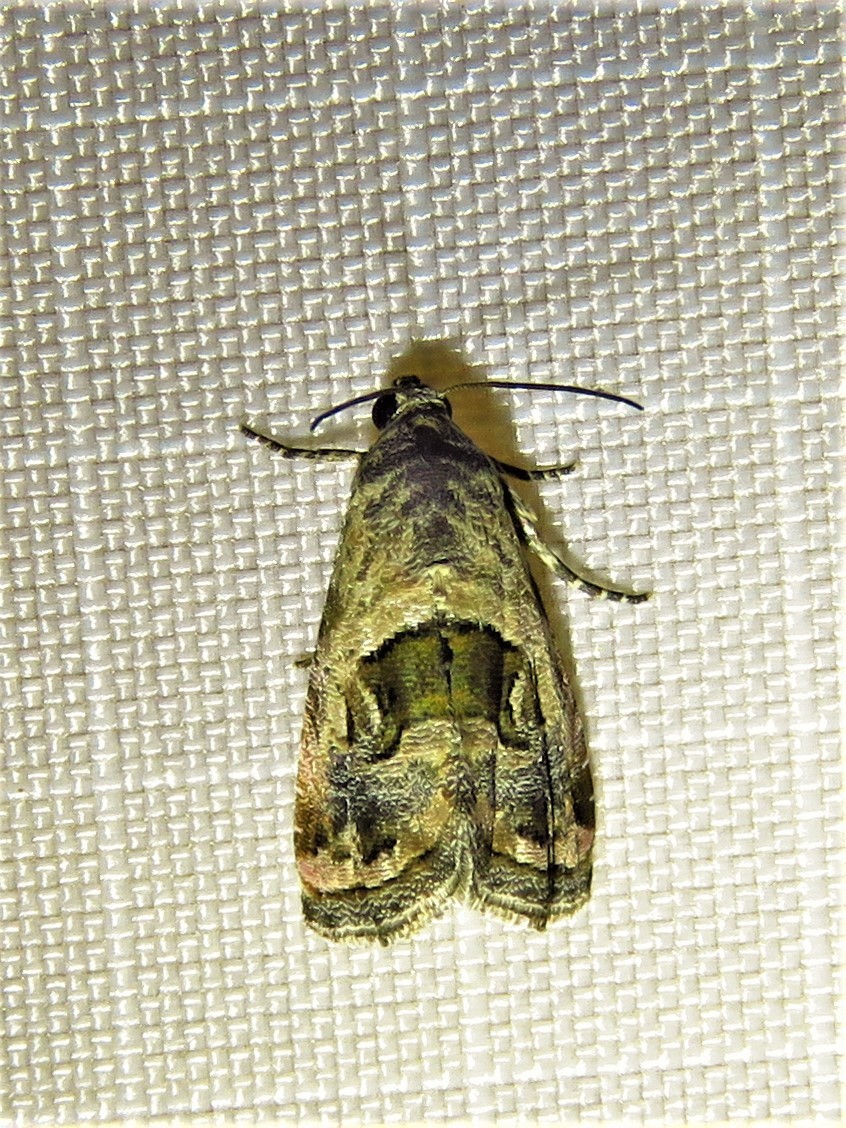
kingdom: Animalia
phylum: Arthropoda
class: Insecta
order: Lepidoptera
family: Noctuidae
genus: Tripudia
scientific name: Tripudia quadrifera
